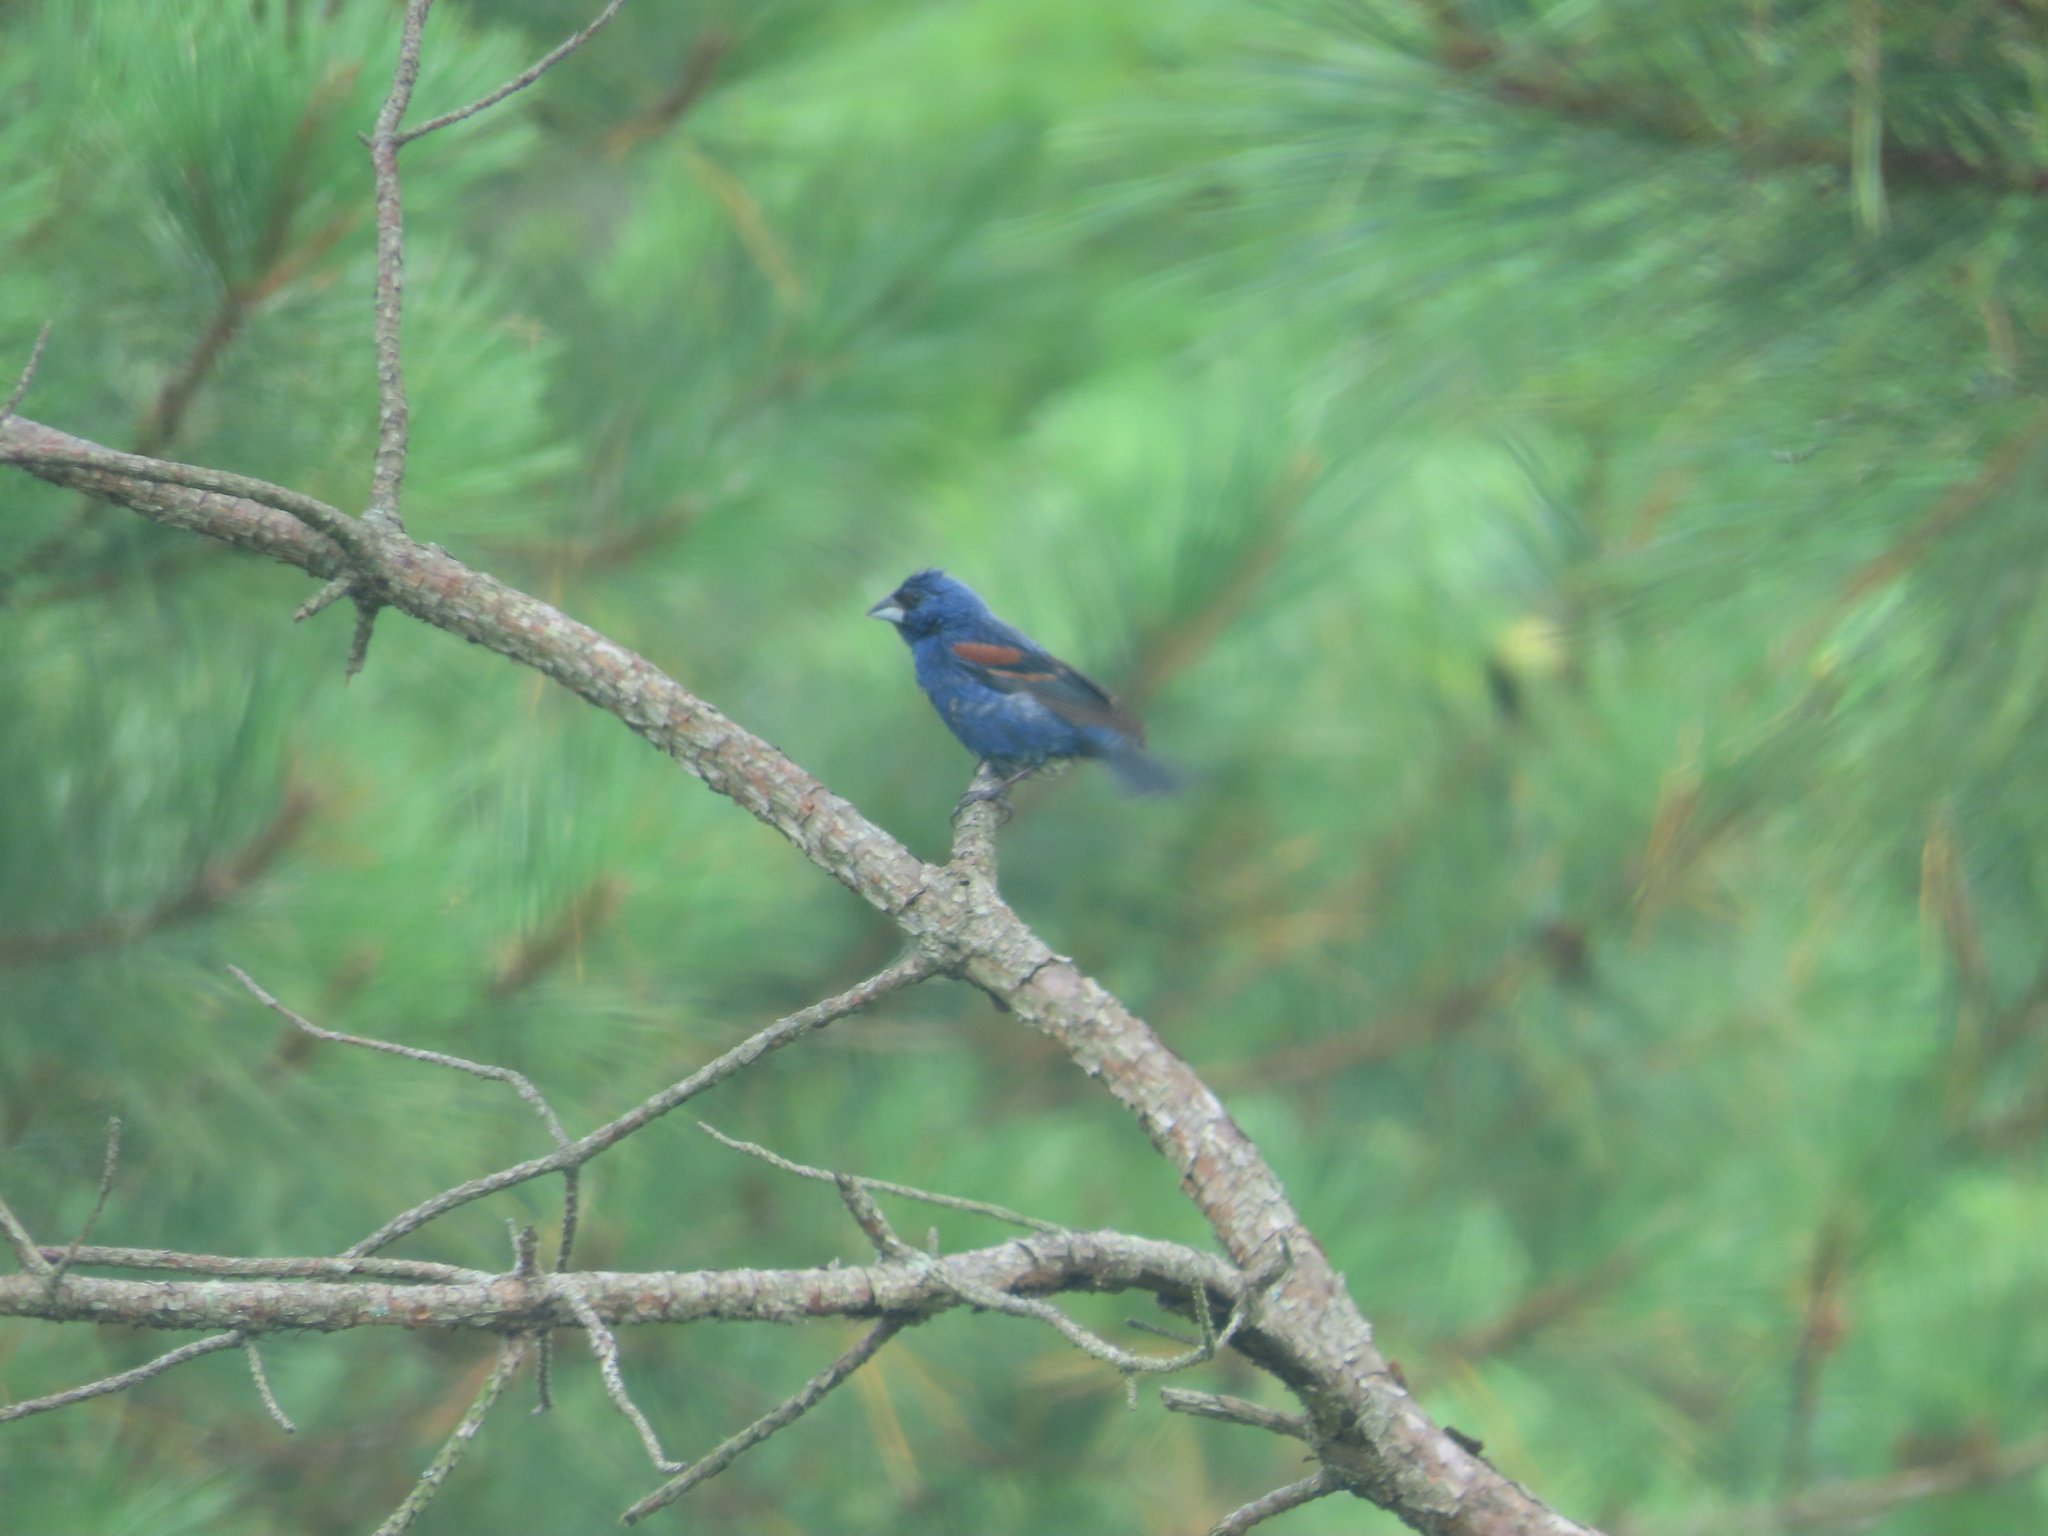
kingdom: Animalia
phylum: Chordata
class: Aves
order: Passeriformes
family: Cardinalidae
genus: Passerina
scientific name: Passerina caerulea
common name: Blue grosbeak
